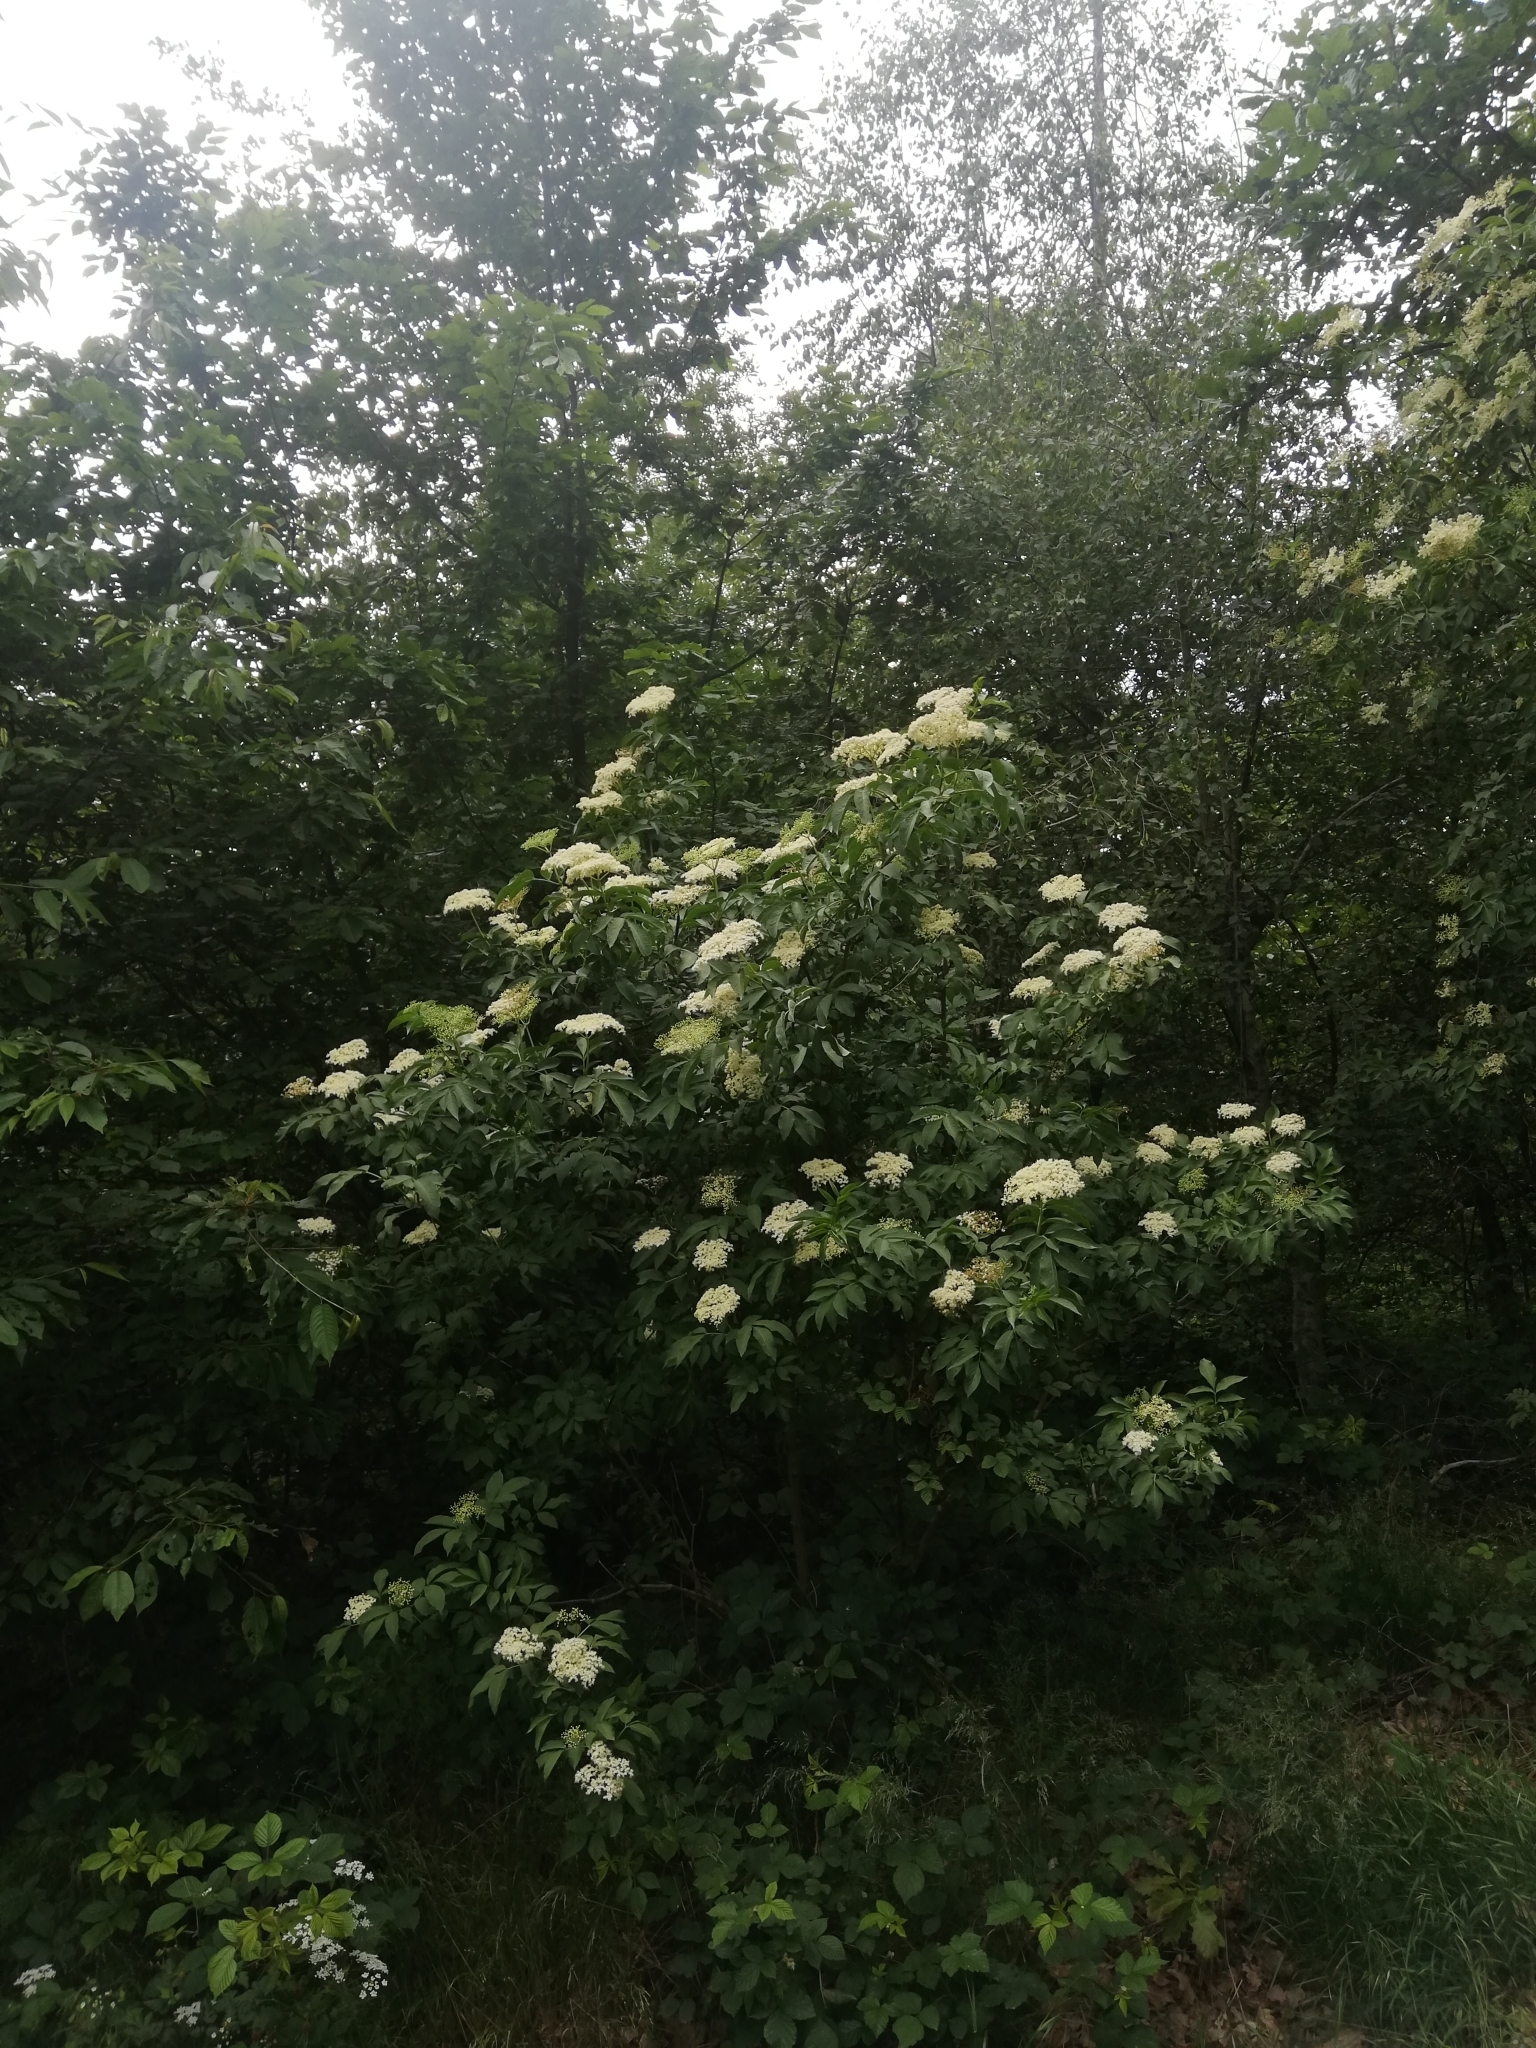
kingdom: Plantae
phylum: Tracheophyta
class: Magnoliopsida
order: Dipsacales
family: Viburnaceae
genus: Sambucus
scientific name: Sambucus nigra
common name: Elder
